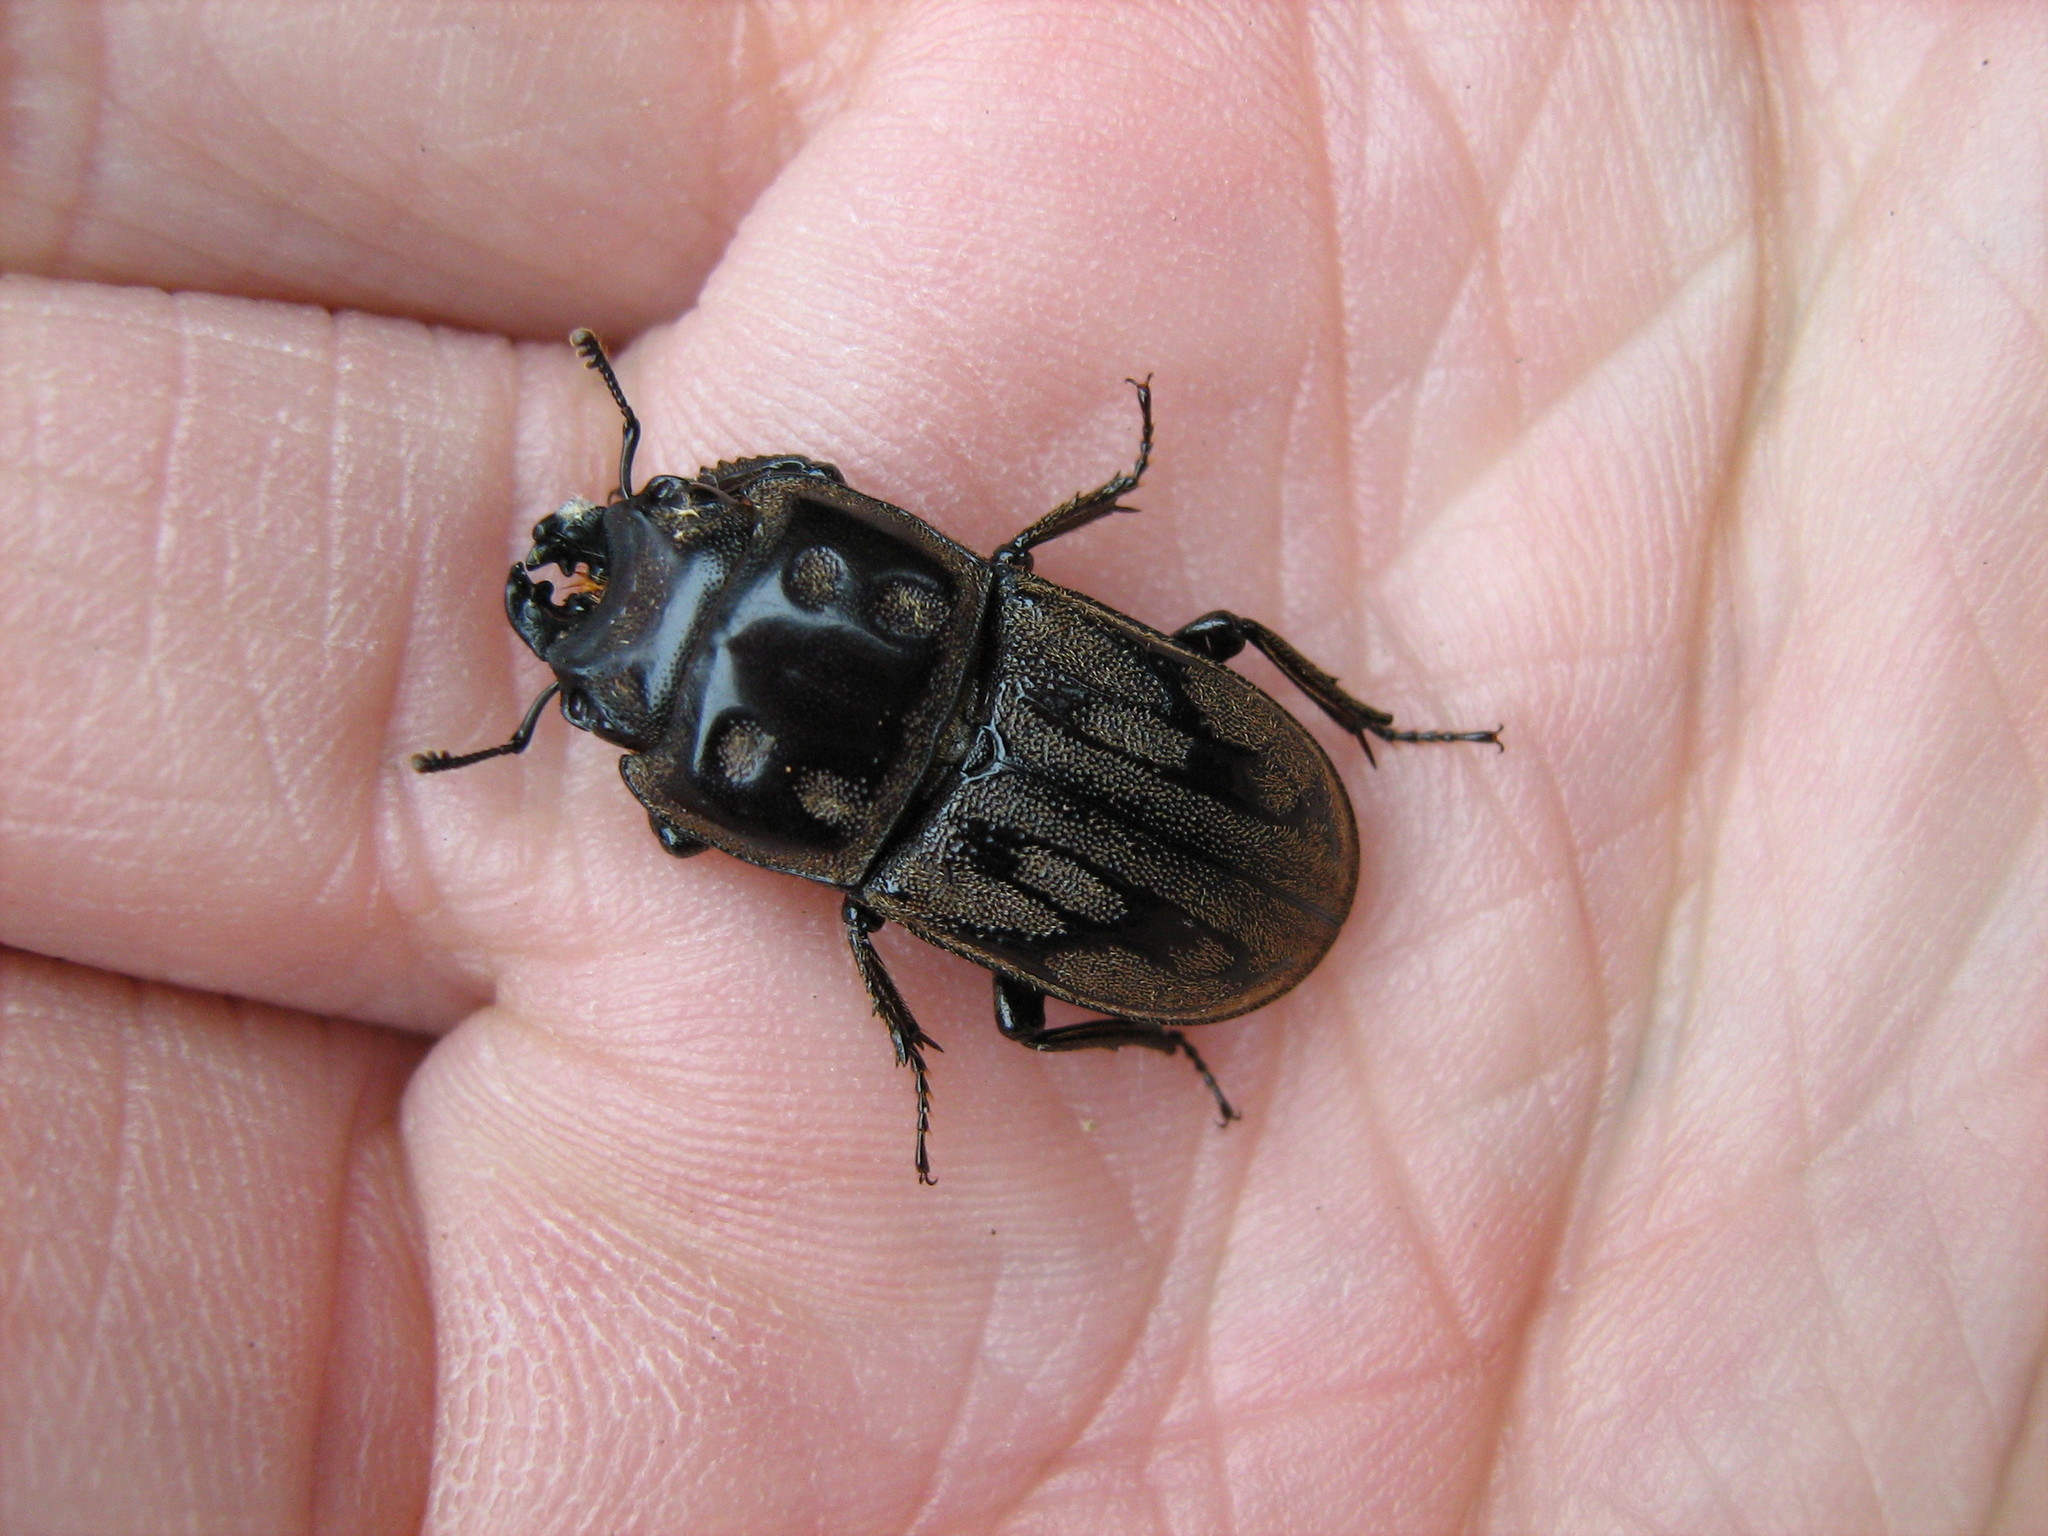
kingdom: Animalia
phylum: Arthropoda
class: Insecta
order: Coleoptera
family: Lucanidae
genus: Paralissotes
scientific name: Paralissotes reticulatus
